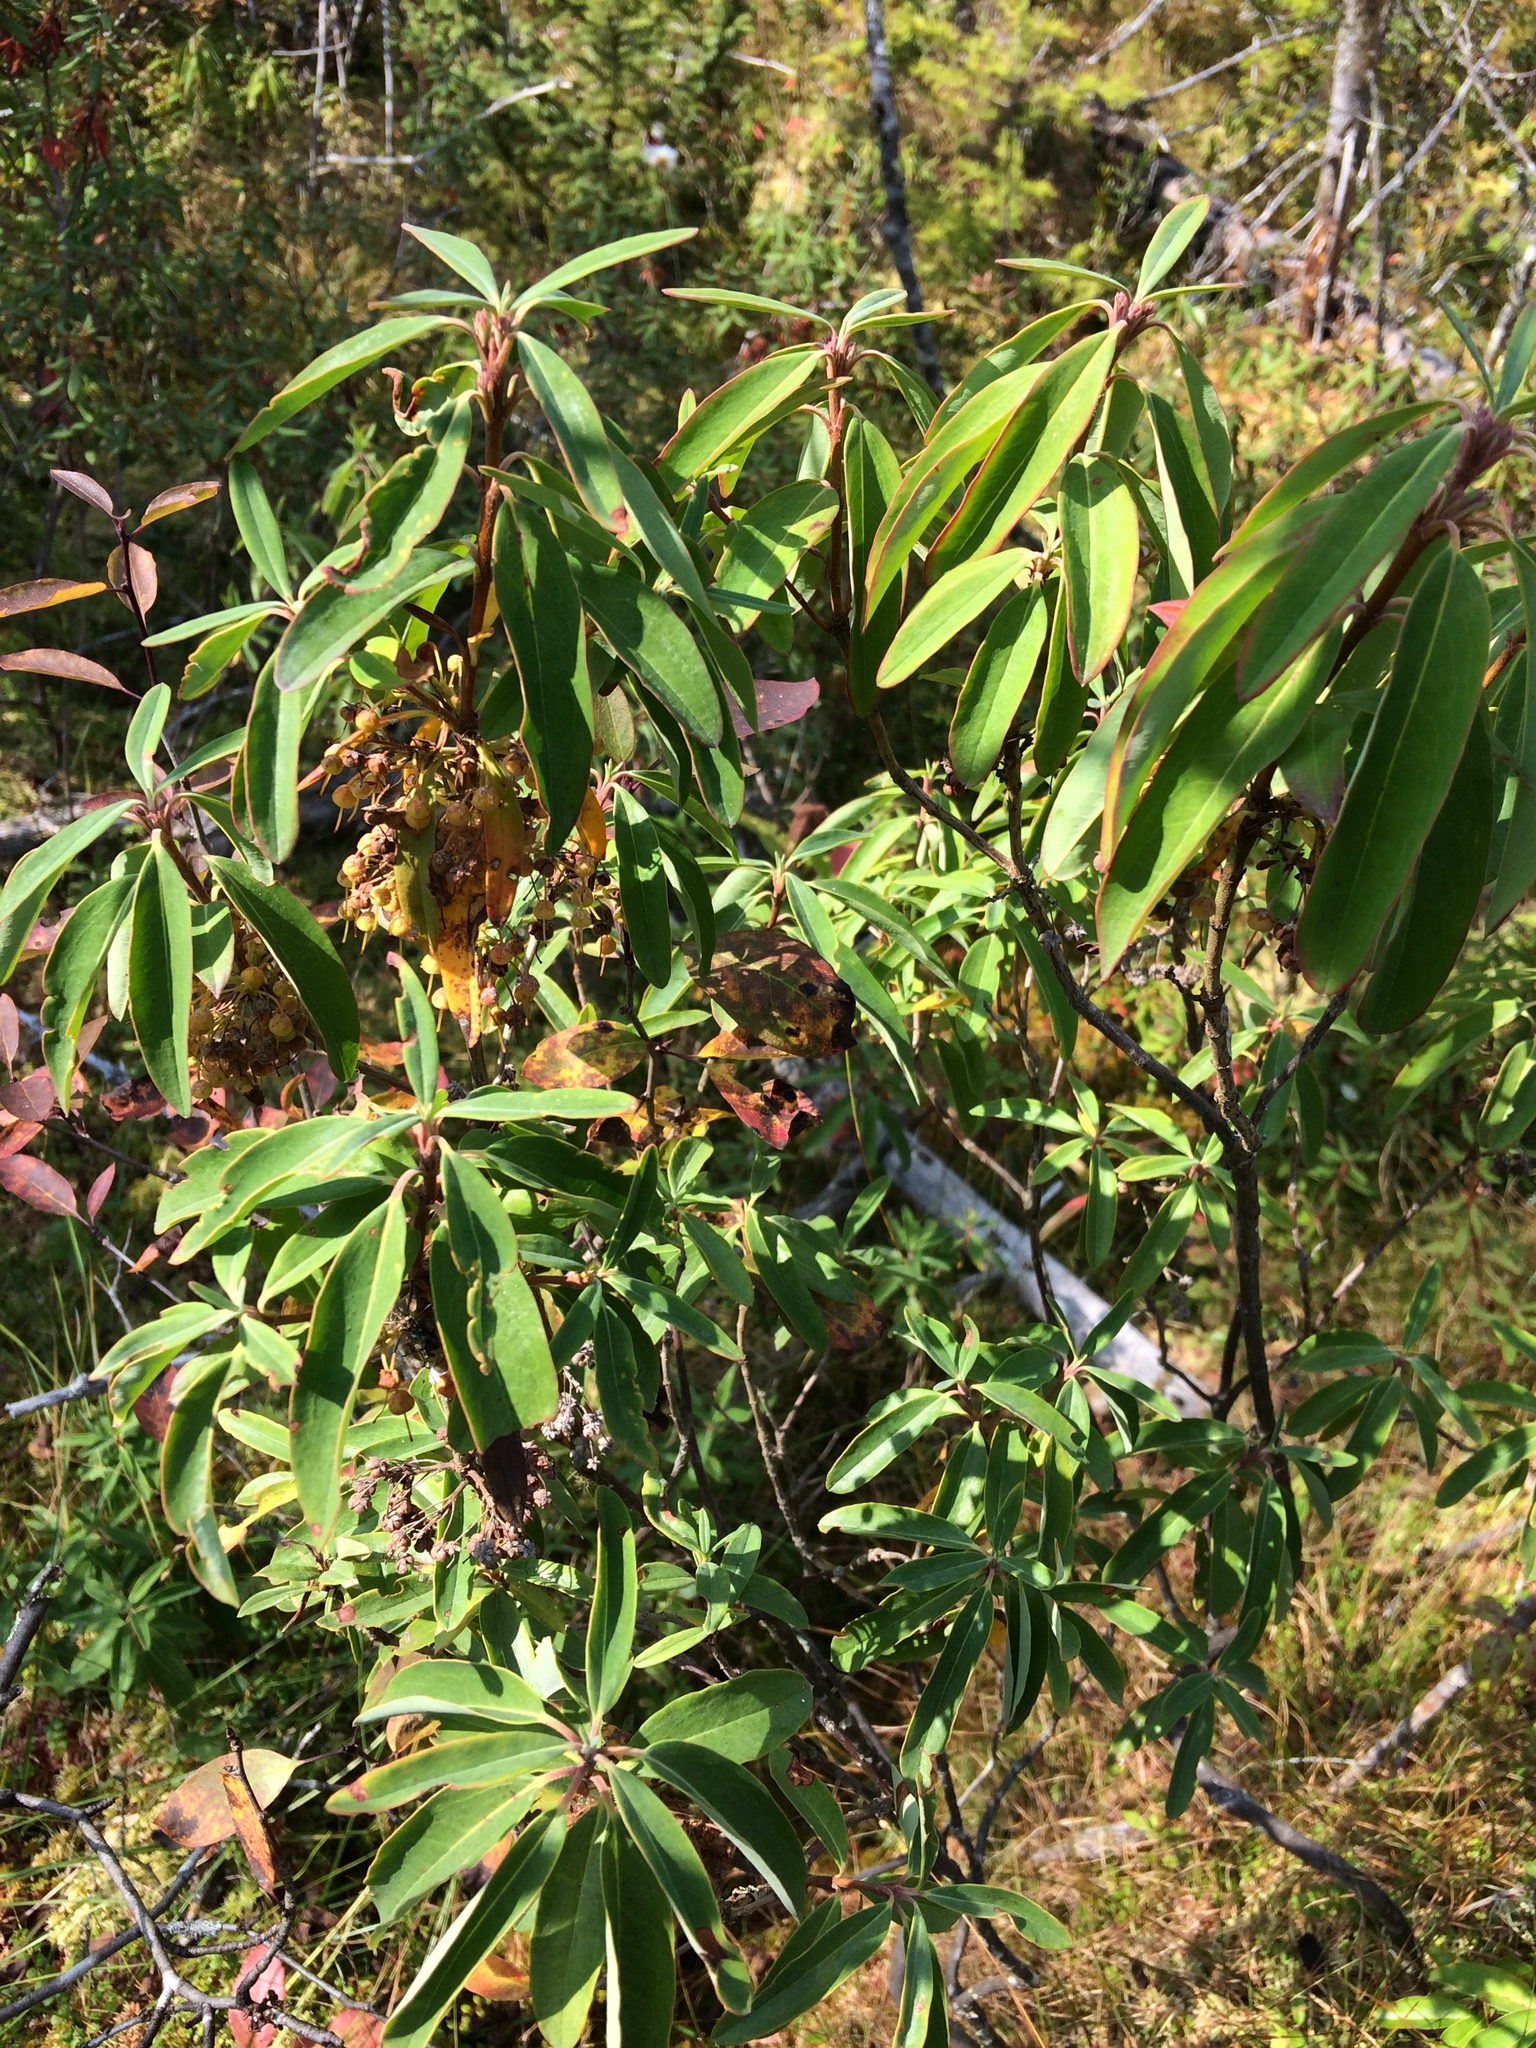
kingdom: Plantae
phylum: Tracheophyta
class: Magnoliopsida
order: Ericales
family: Ericaceae
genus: Kalmia
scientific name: Kalmia angustifolia
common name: Sheep-laurel
